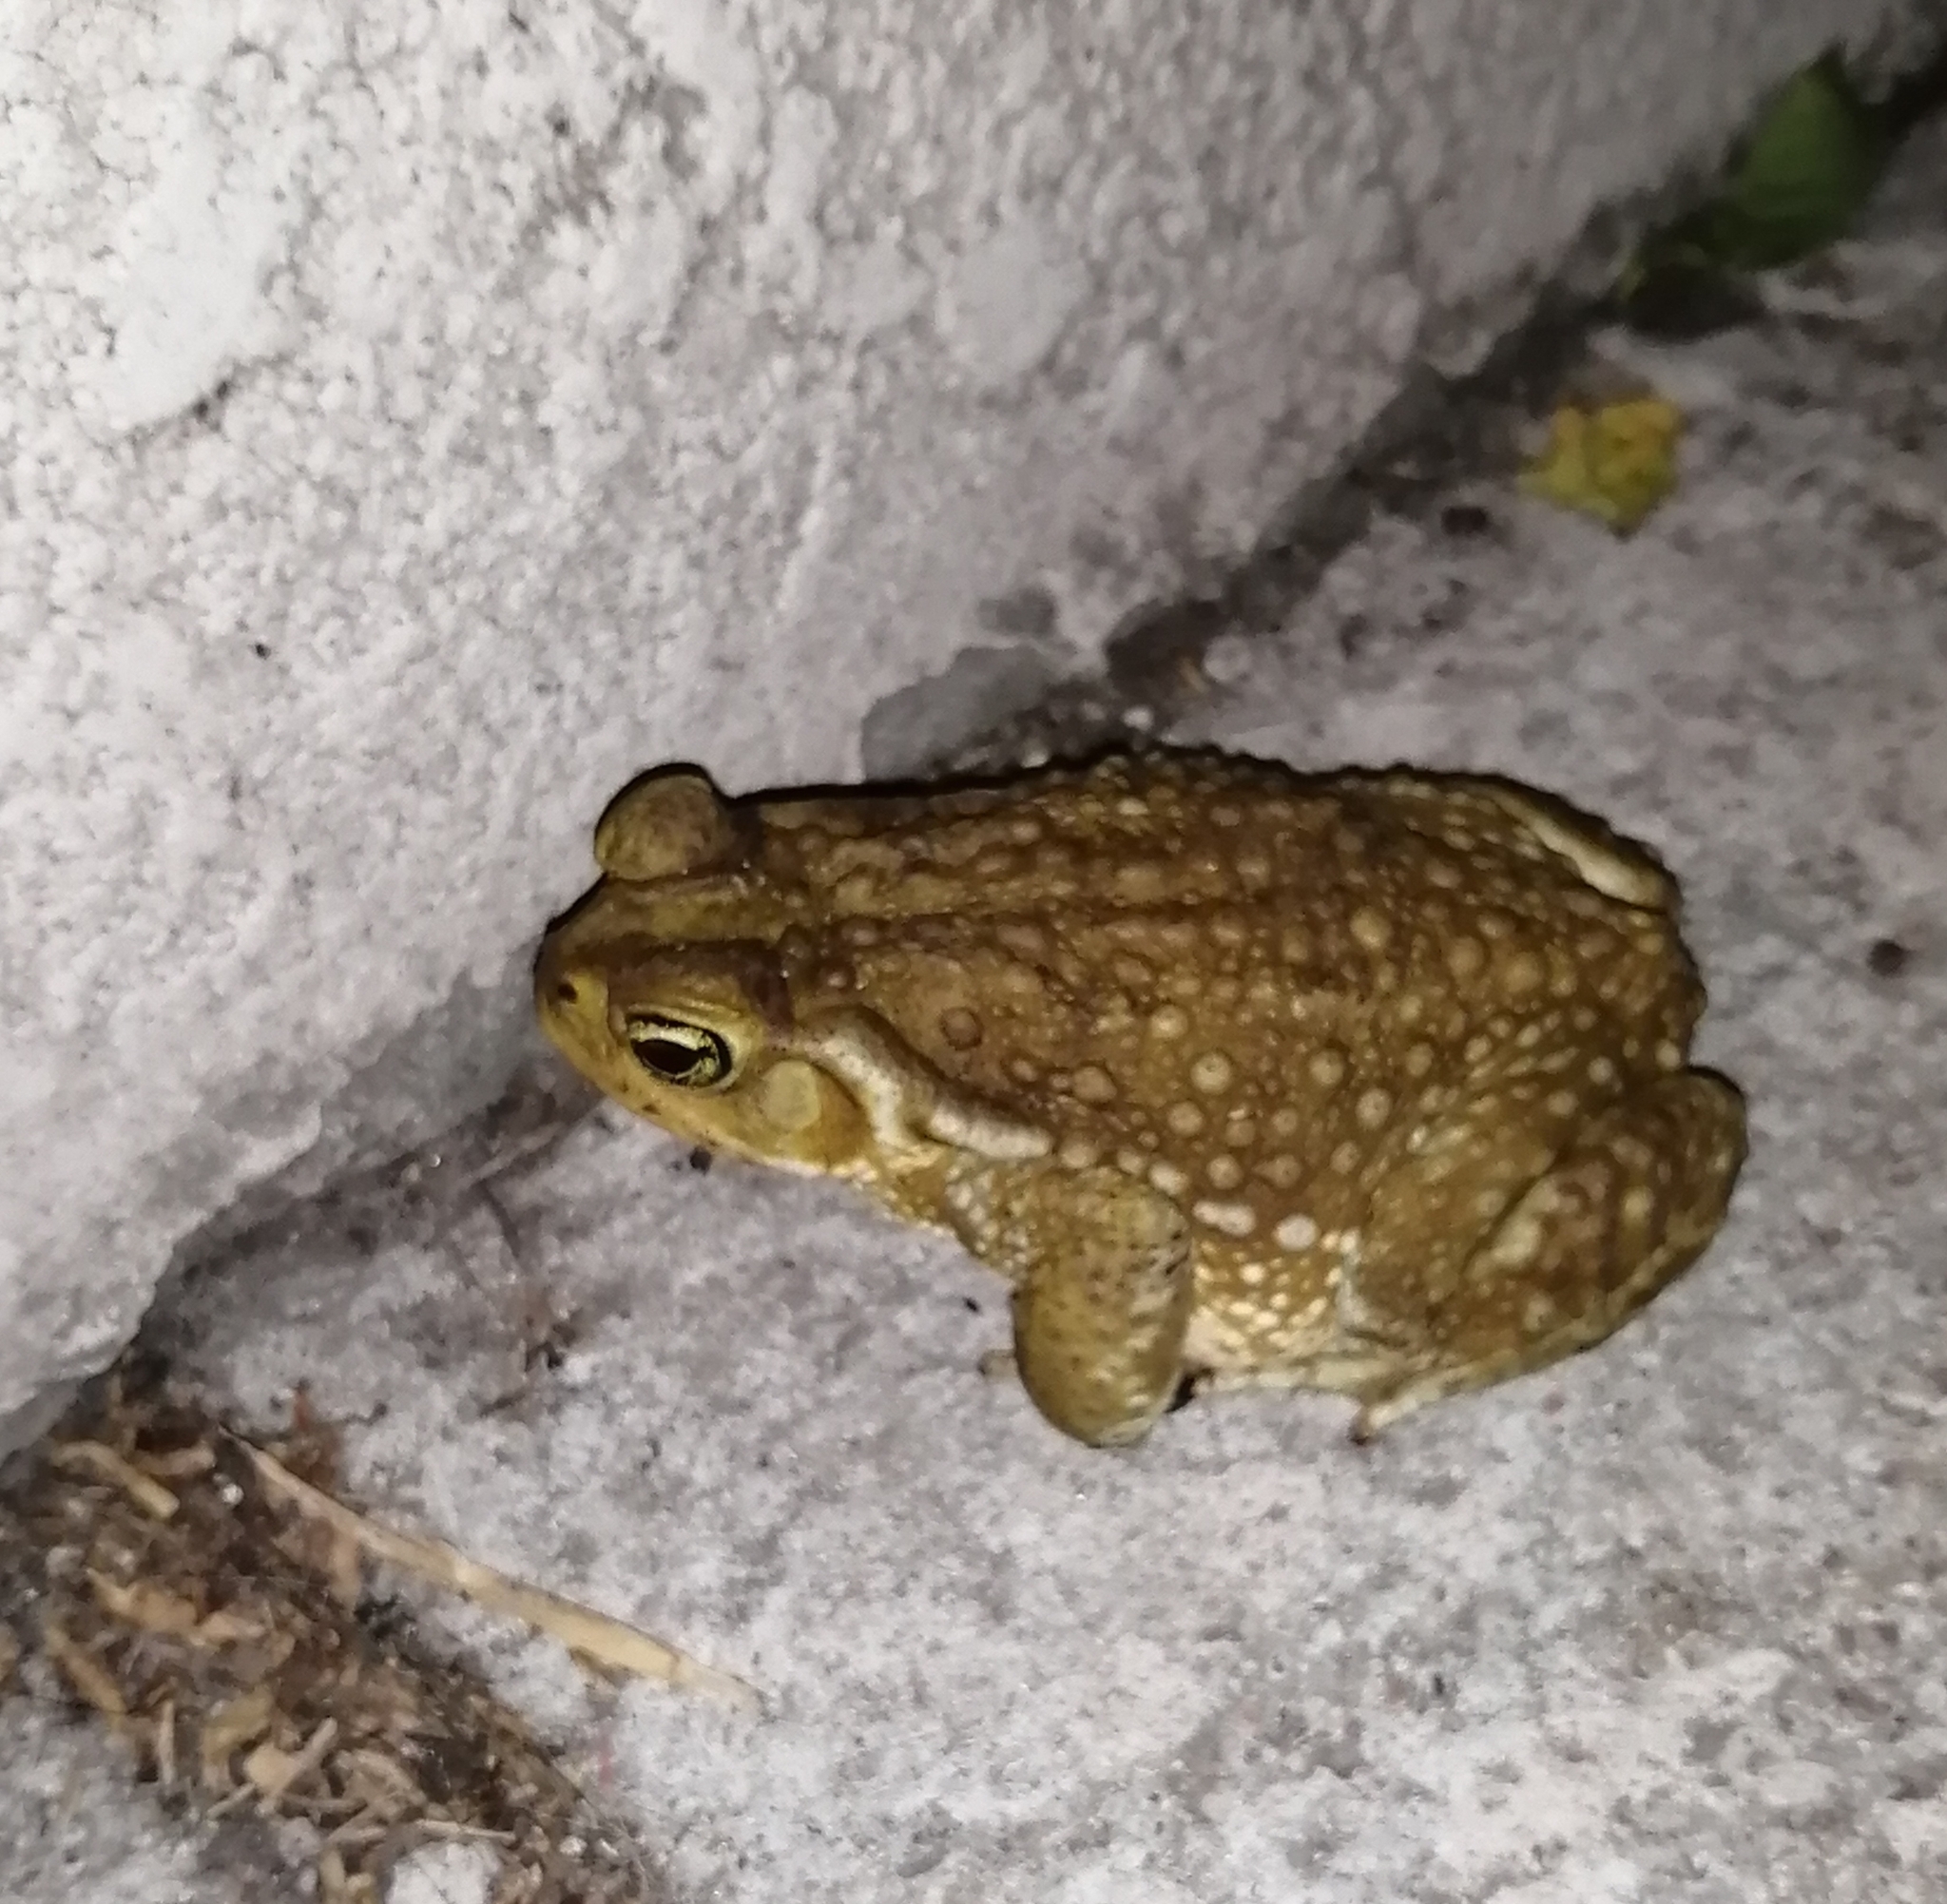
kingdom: Animalia
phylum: Chordata
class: Amphibia
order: Anura
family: Bufonidae
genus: Rhinella
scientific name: Rhinella arenarum
